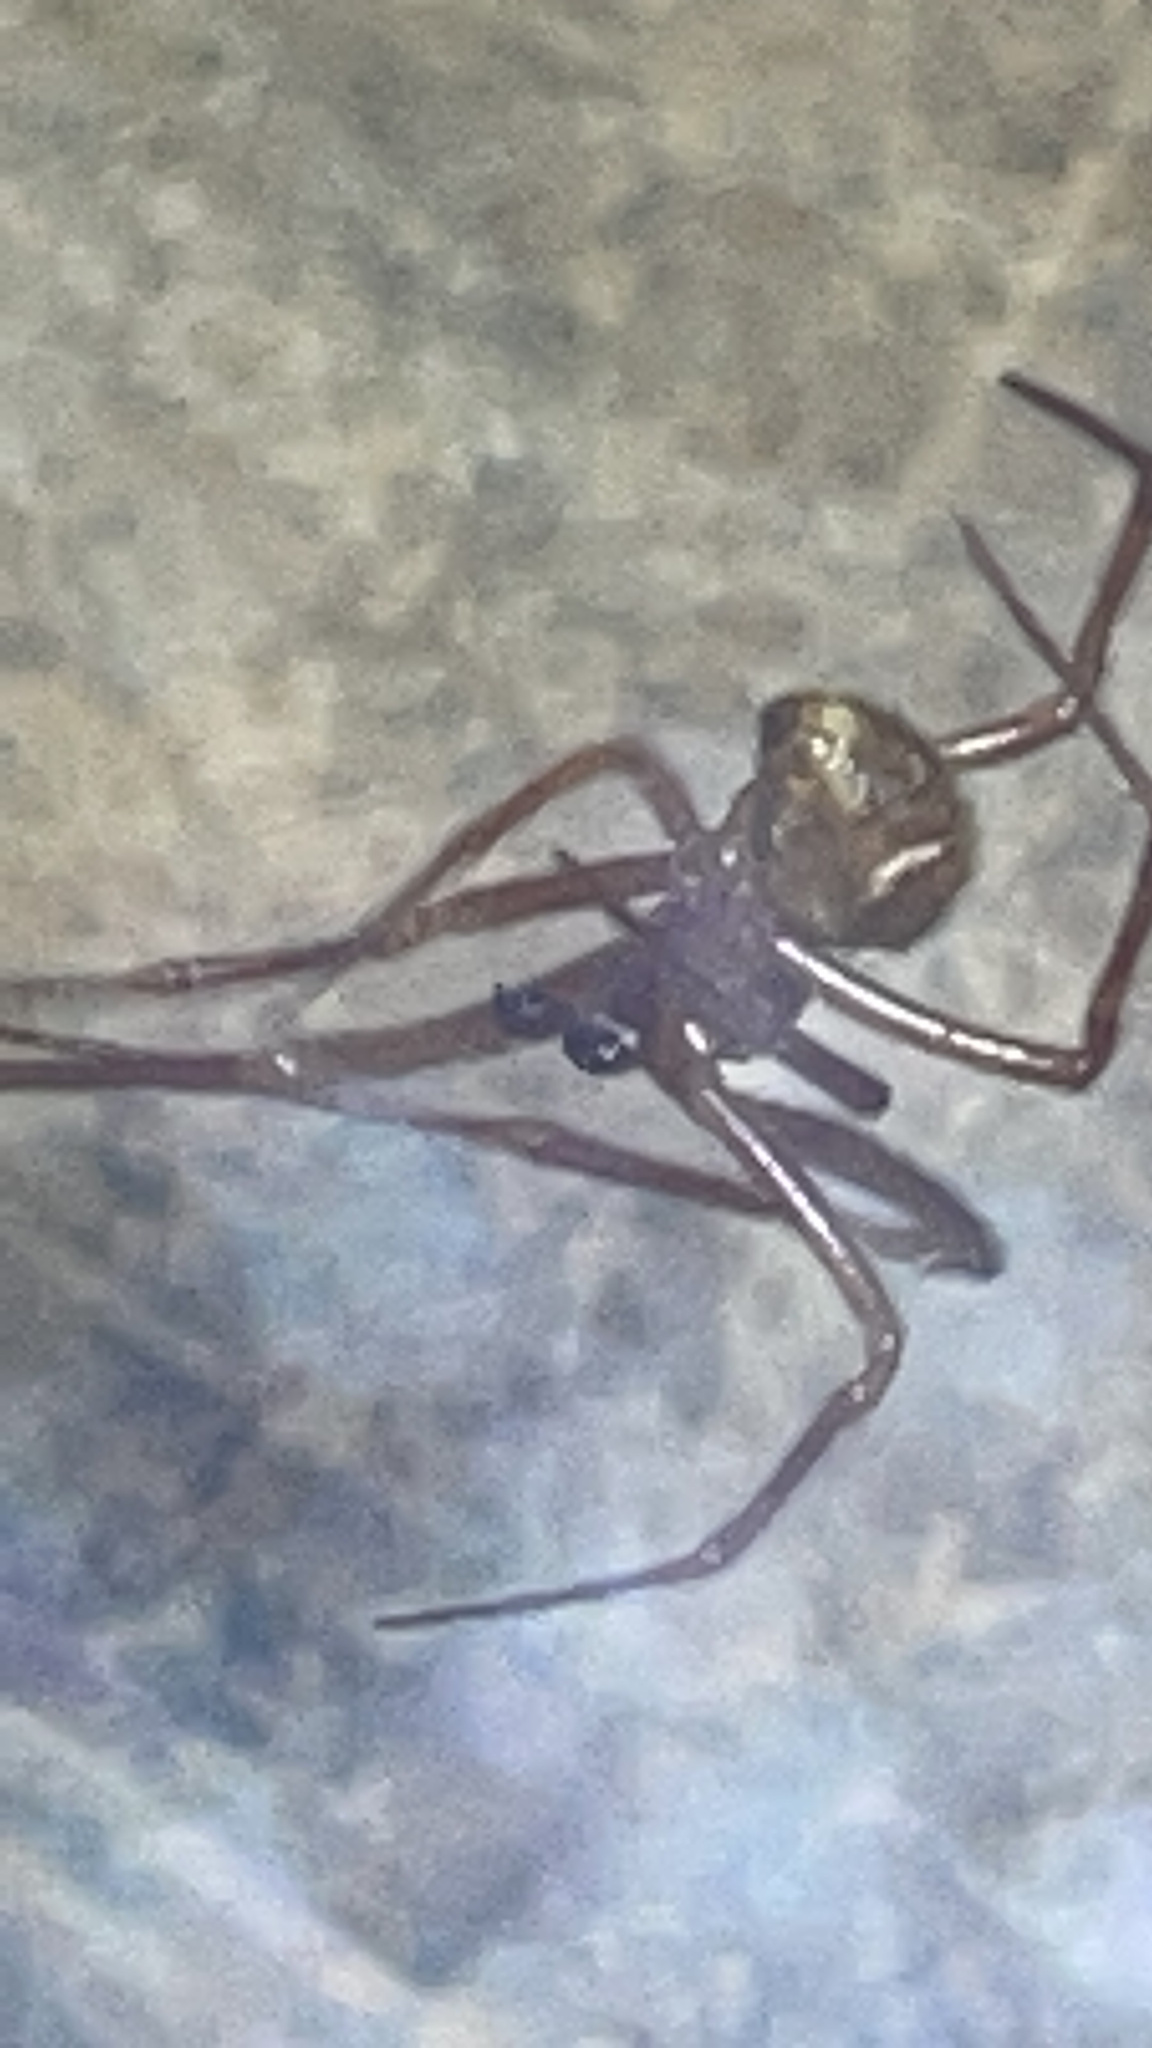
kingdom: Animalia
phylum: Arthropoda
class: Arachnida
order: Araneae
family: Theridiidae
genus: Parasteatoda
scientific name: Parasteatoda tepidariorum
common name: Common house spider
